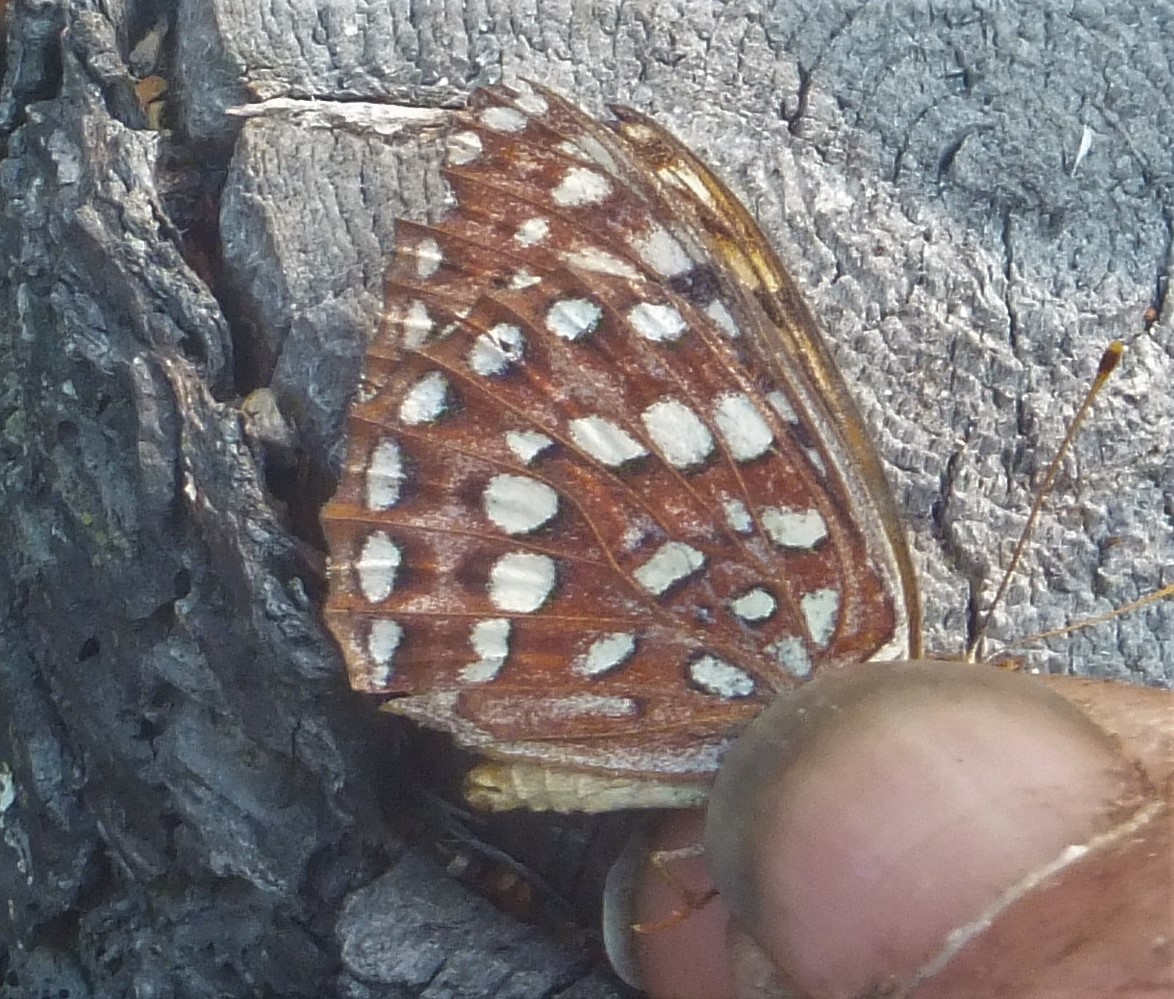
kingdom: Animalia
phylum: Arthropoda
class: Insecta
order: Lepidoptera
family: Nymphalidae
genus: Speyeria
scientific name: Speyeria hydaspe
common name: Hydaspe fritillary
